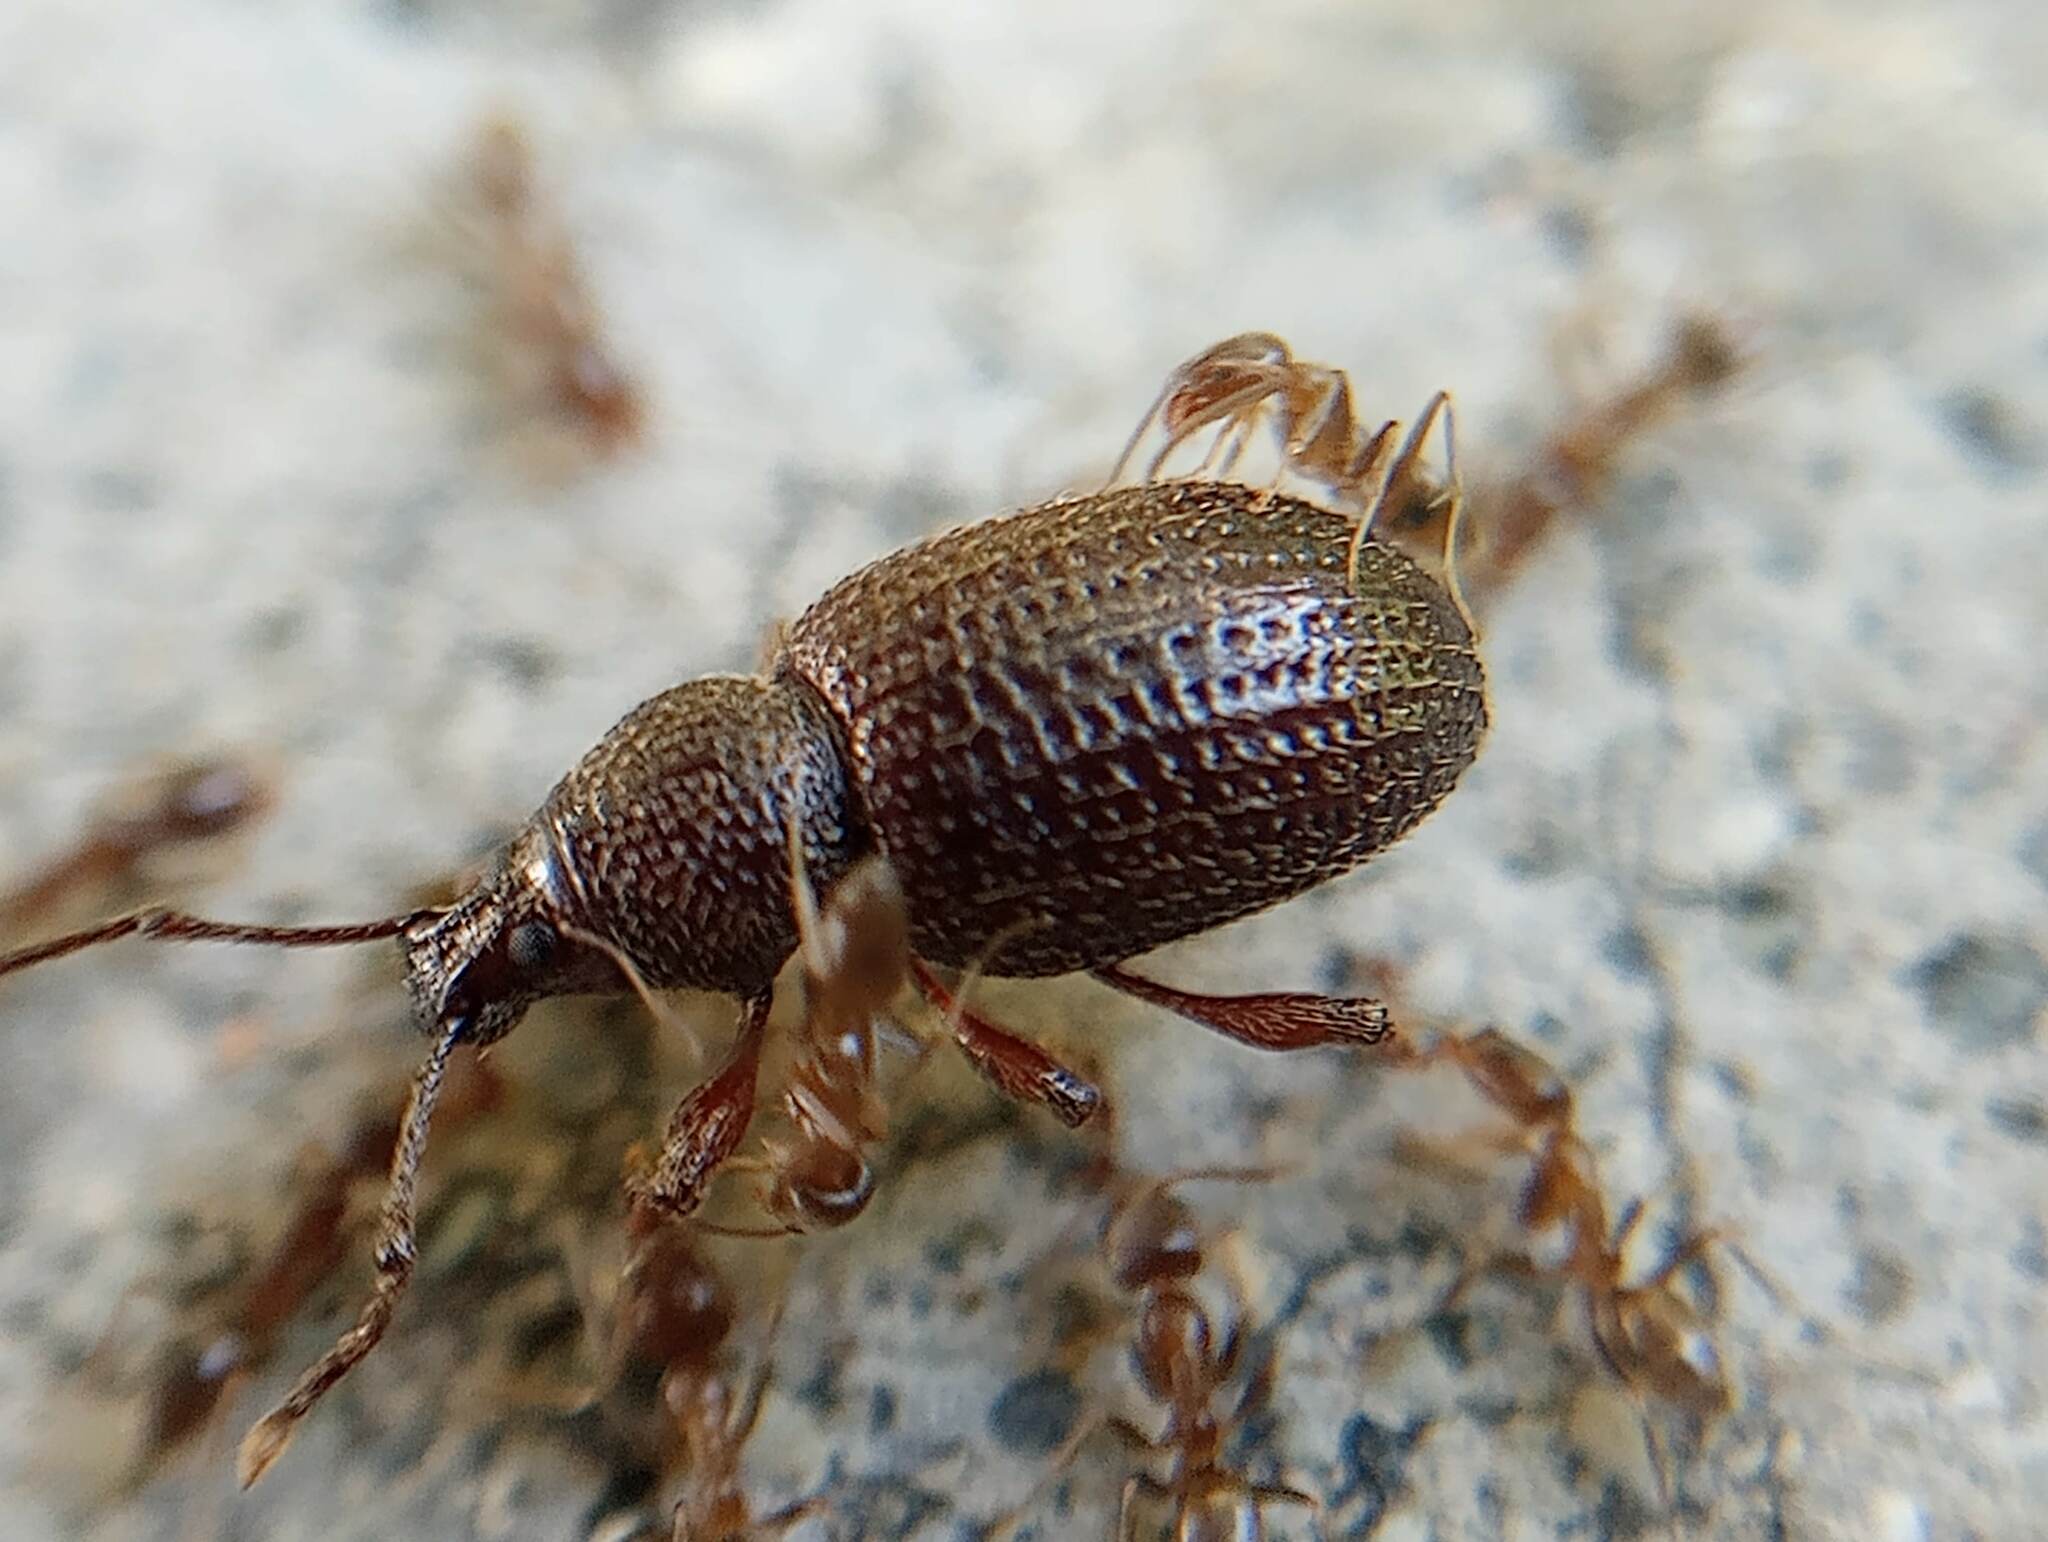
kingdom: Animalia
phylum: Arthropoda
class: Insecta
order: Coleoptera
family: Curculionidae
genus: Otiorhynchus
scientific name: Otiorhynchus cribricollis
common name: Weevil
